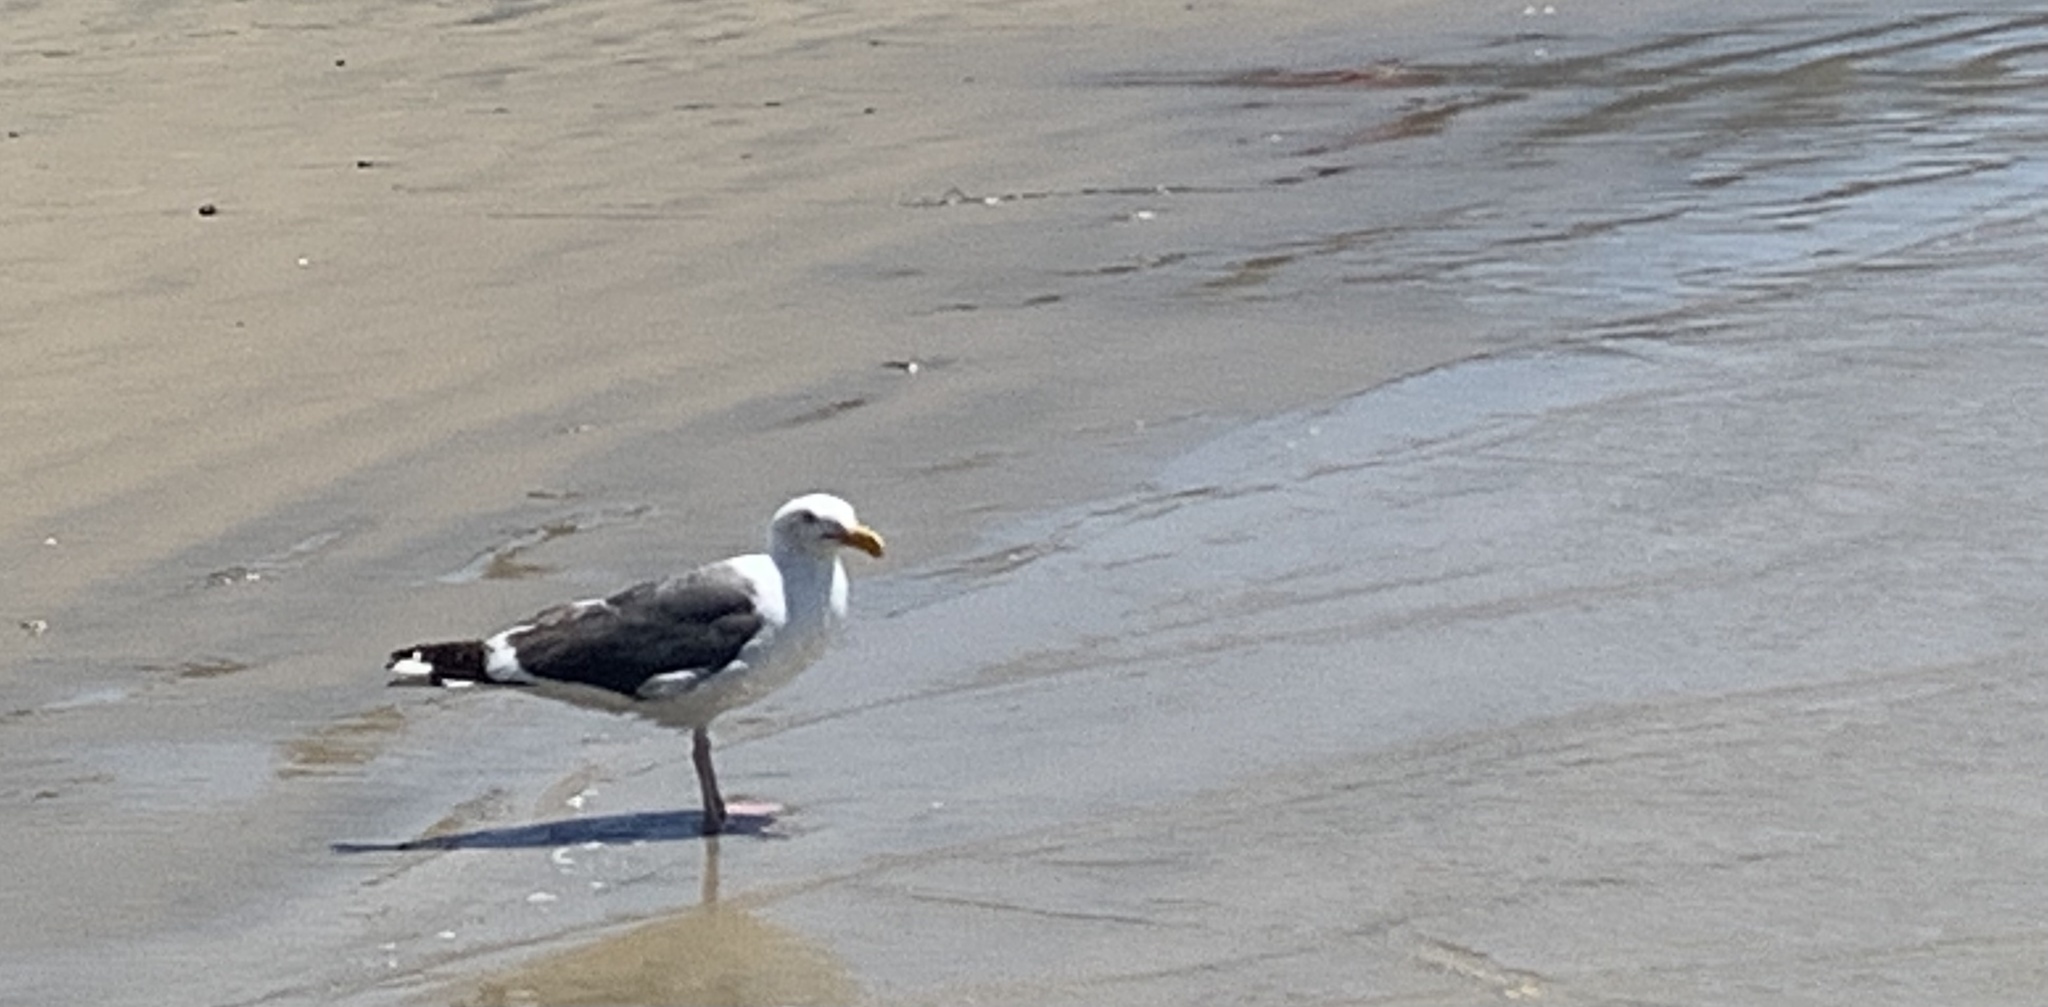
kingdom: Animalia
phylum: Chordata
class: Aves
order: Charadriiformes
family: Laridae
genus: Larus
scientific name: Larus occidentalis
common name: Western gull
